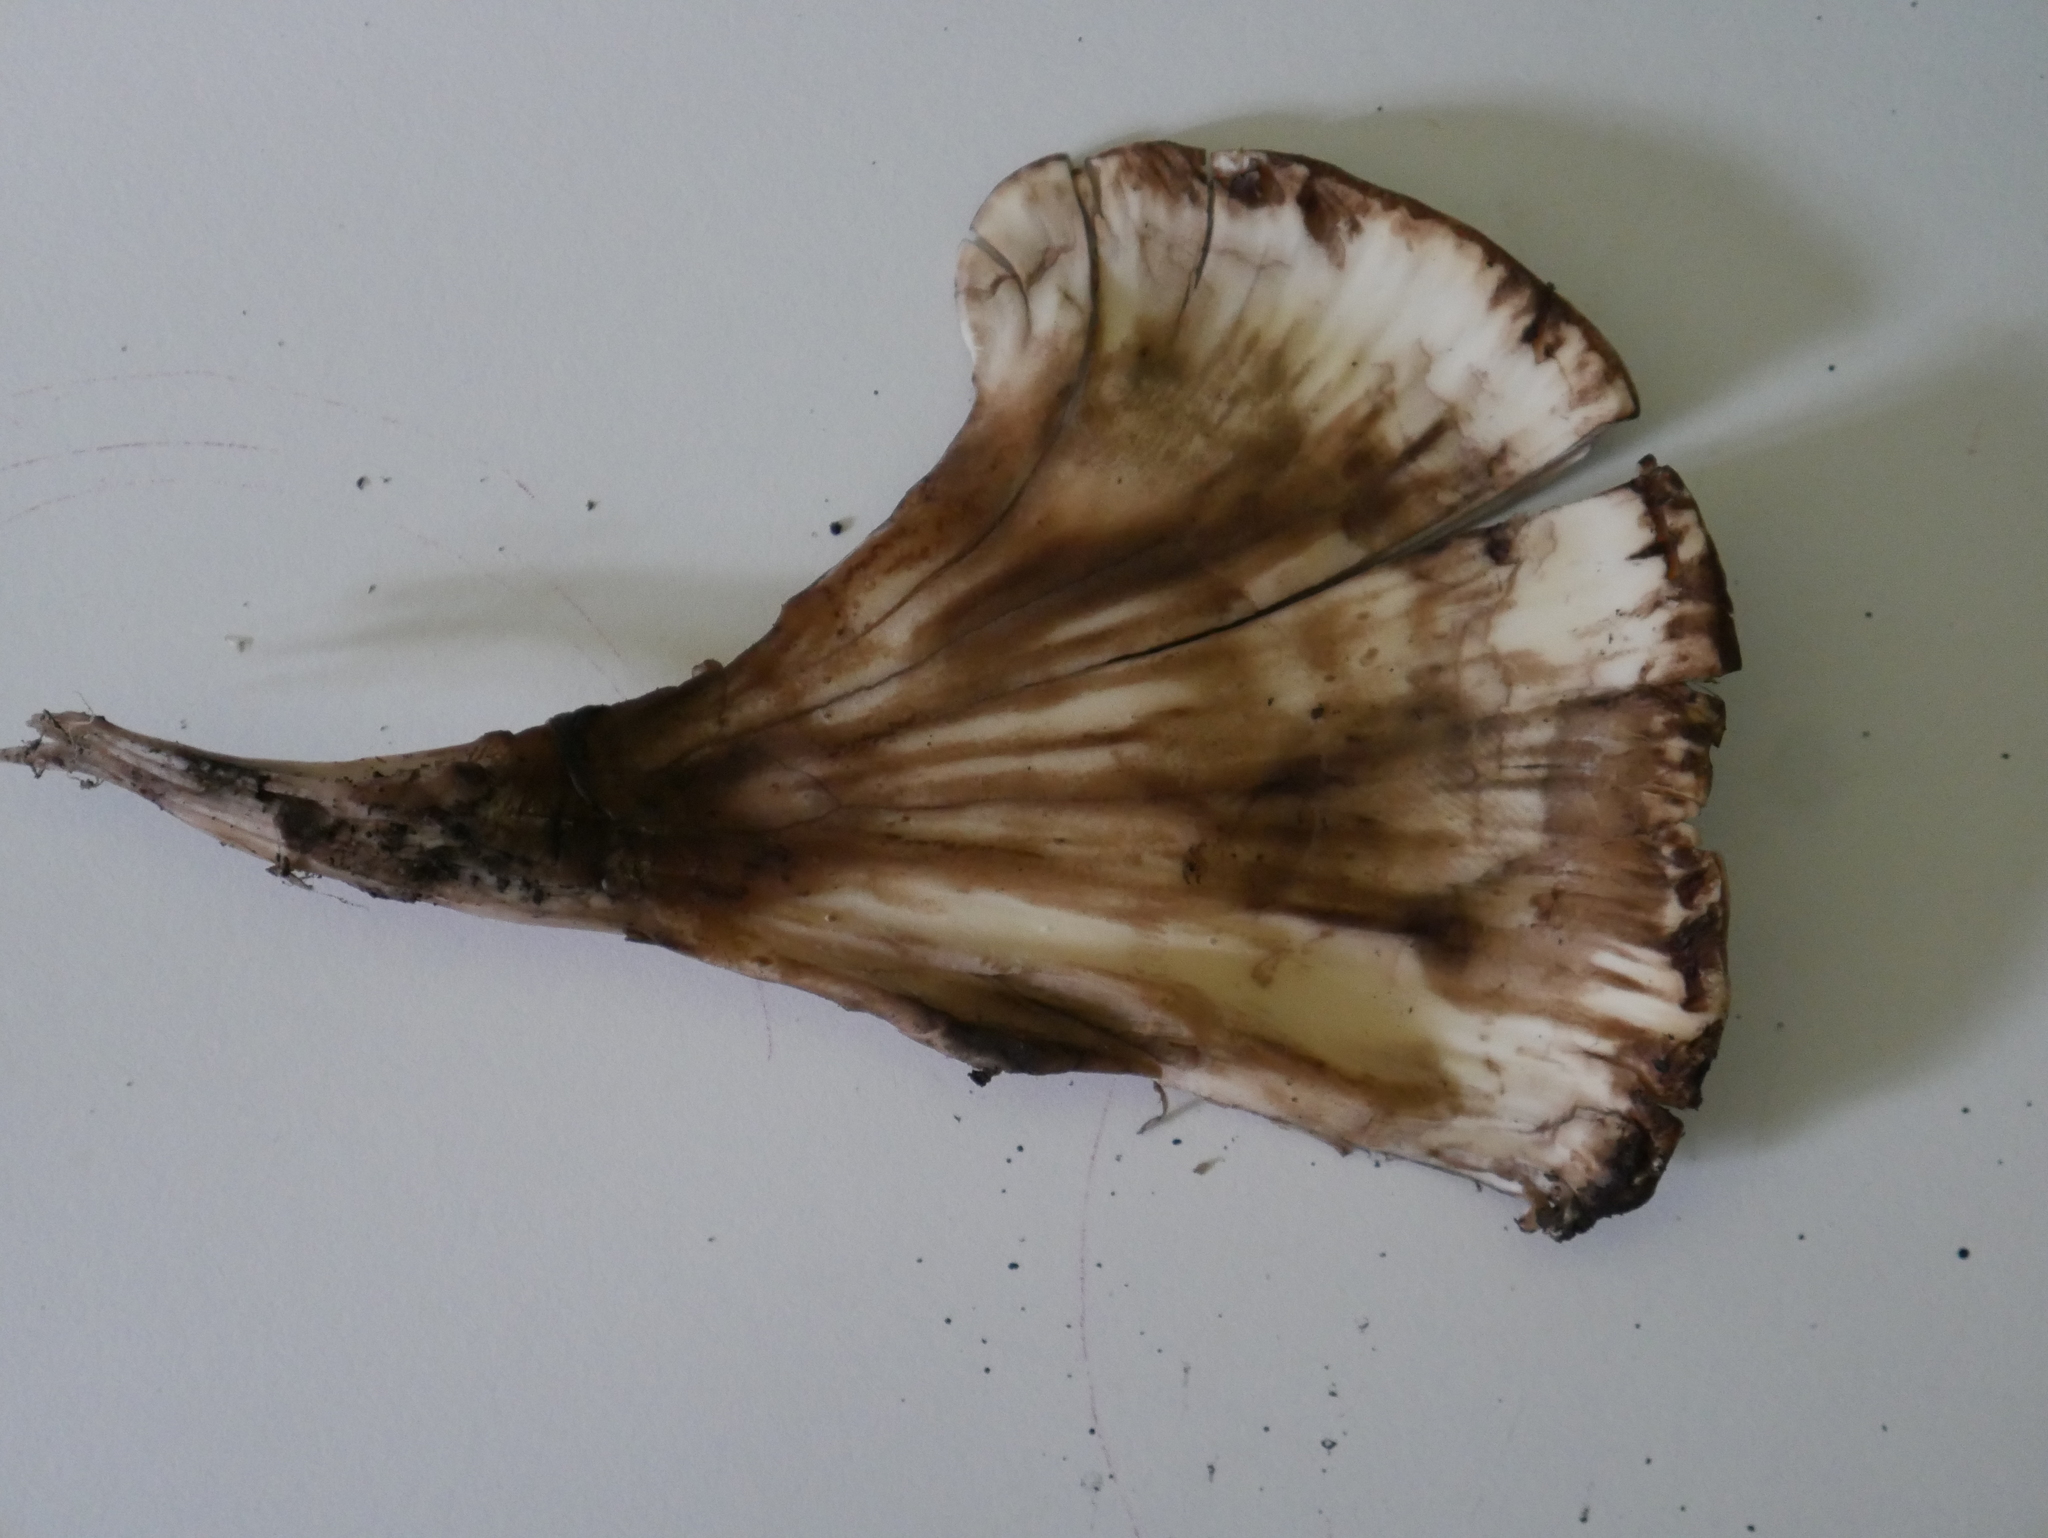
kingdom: Fungi
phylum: Basidiomycota
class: Agaricomycetes
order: Polyporales
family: Meripilaceae
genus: Meripilus
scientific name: Meripilus sumstinei
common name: Black-staining polypore
